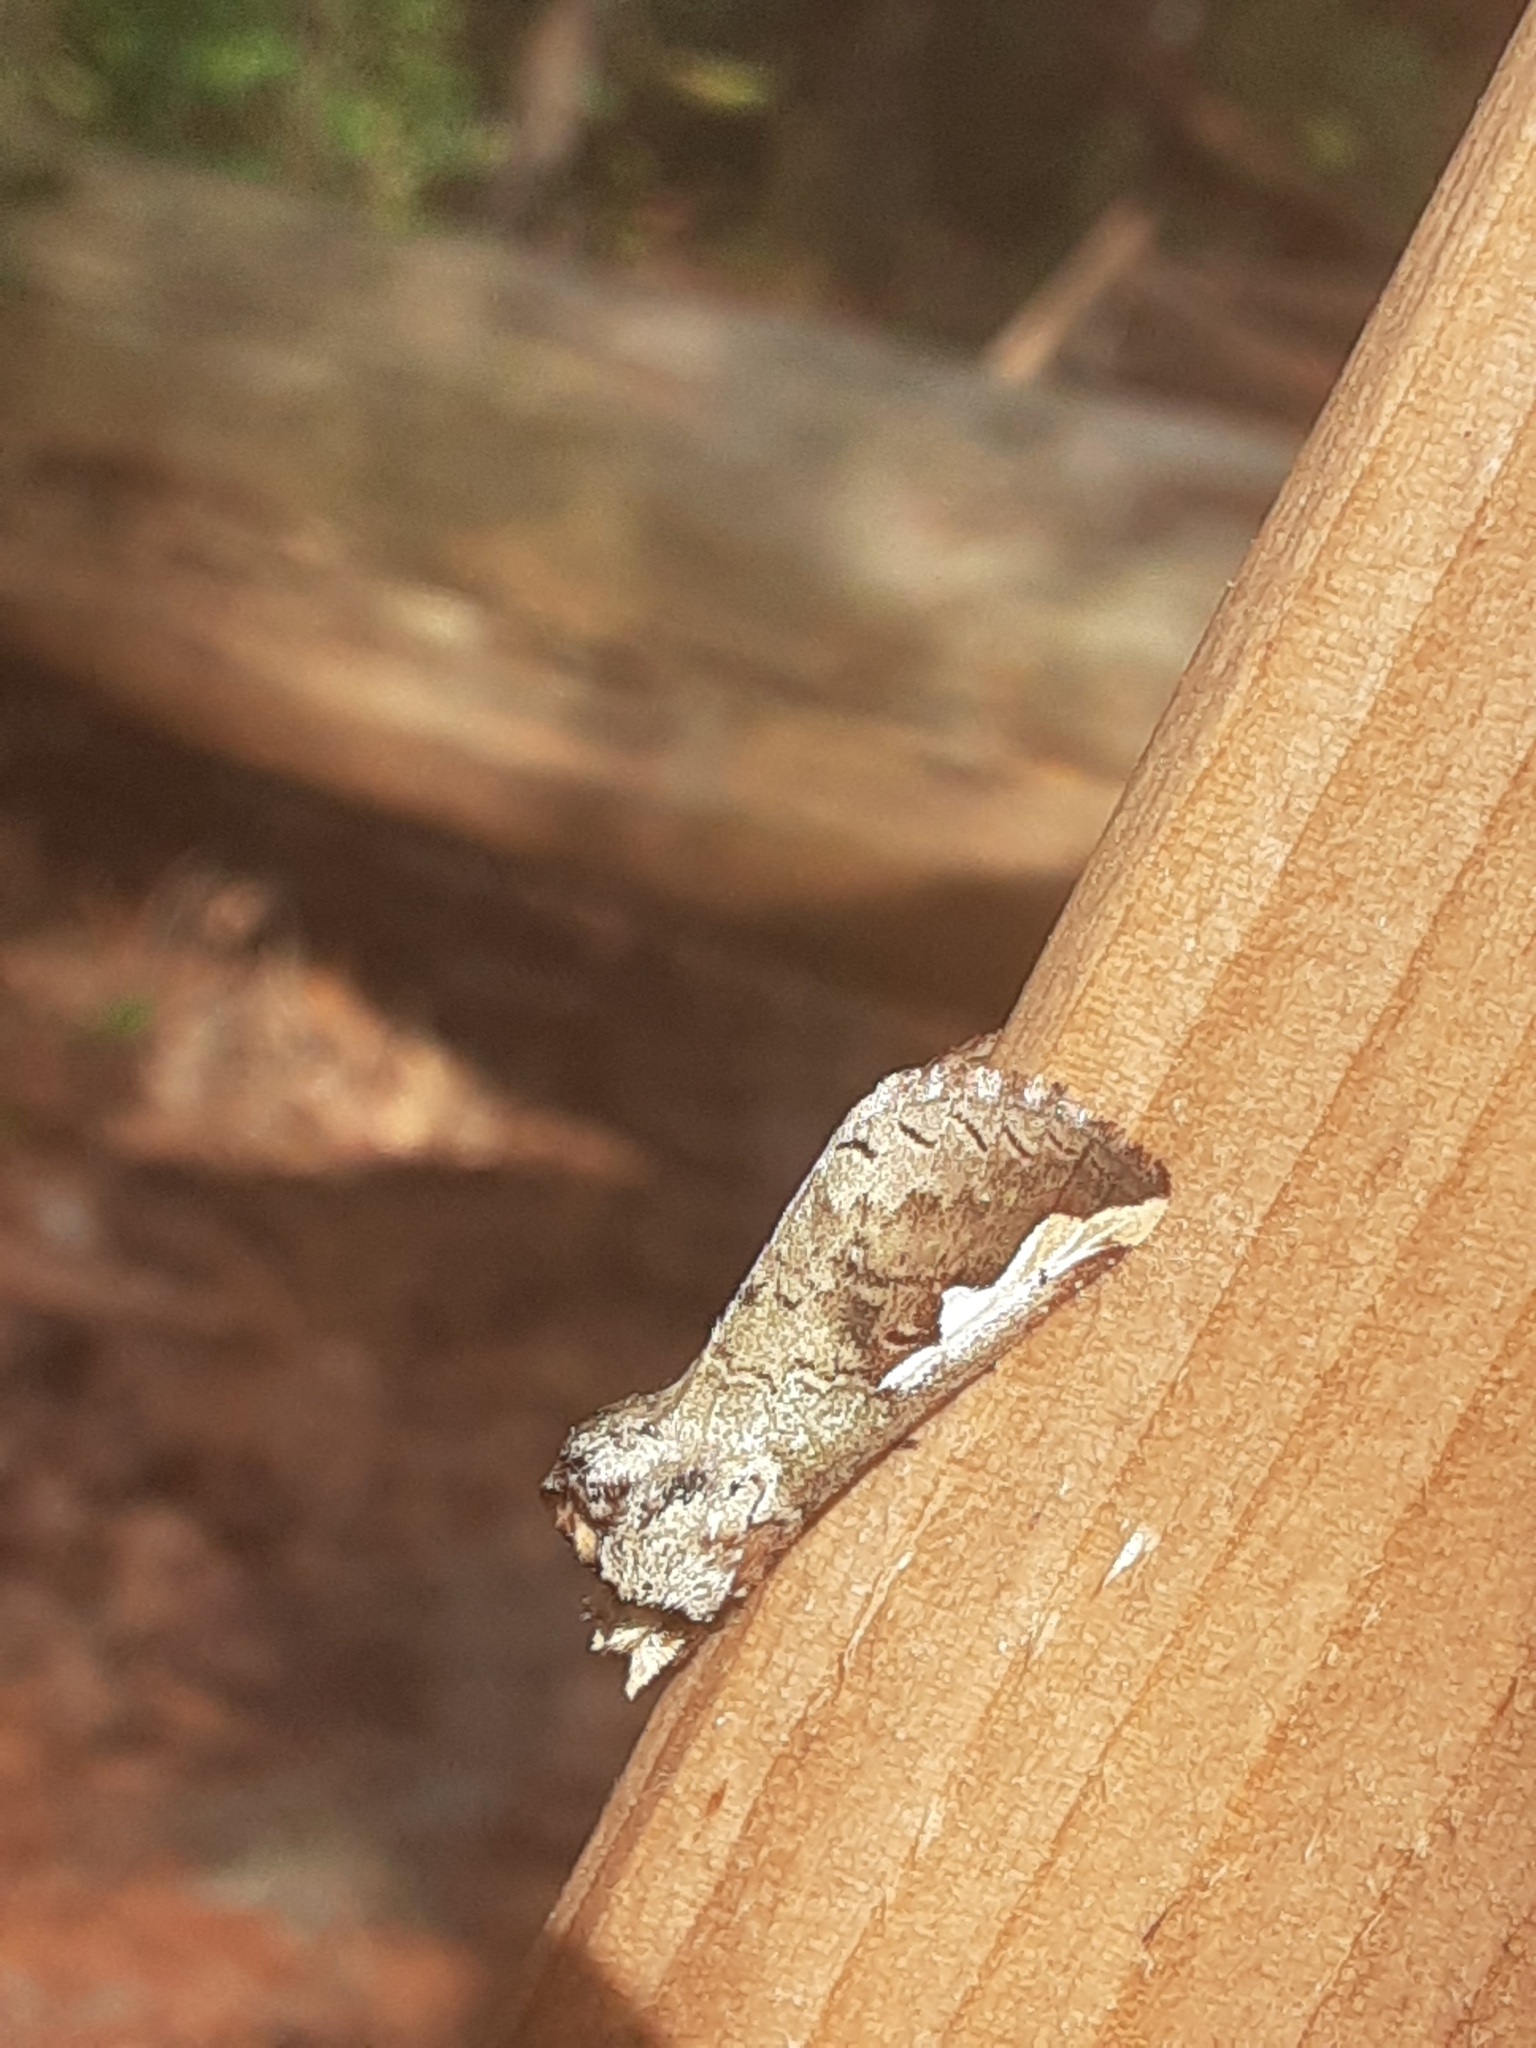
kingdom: Animalia
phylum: Arthropoda
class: Insecta
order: Lepidoptera
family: Notodontidae
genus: Symmerista
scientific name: Symmerista albifrons
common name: White-headed prominent
